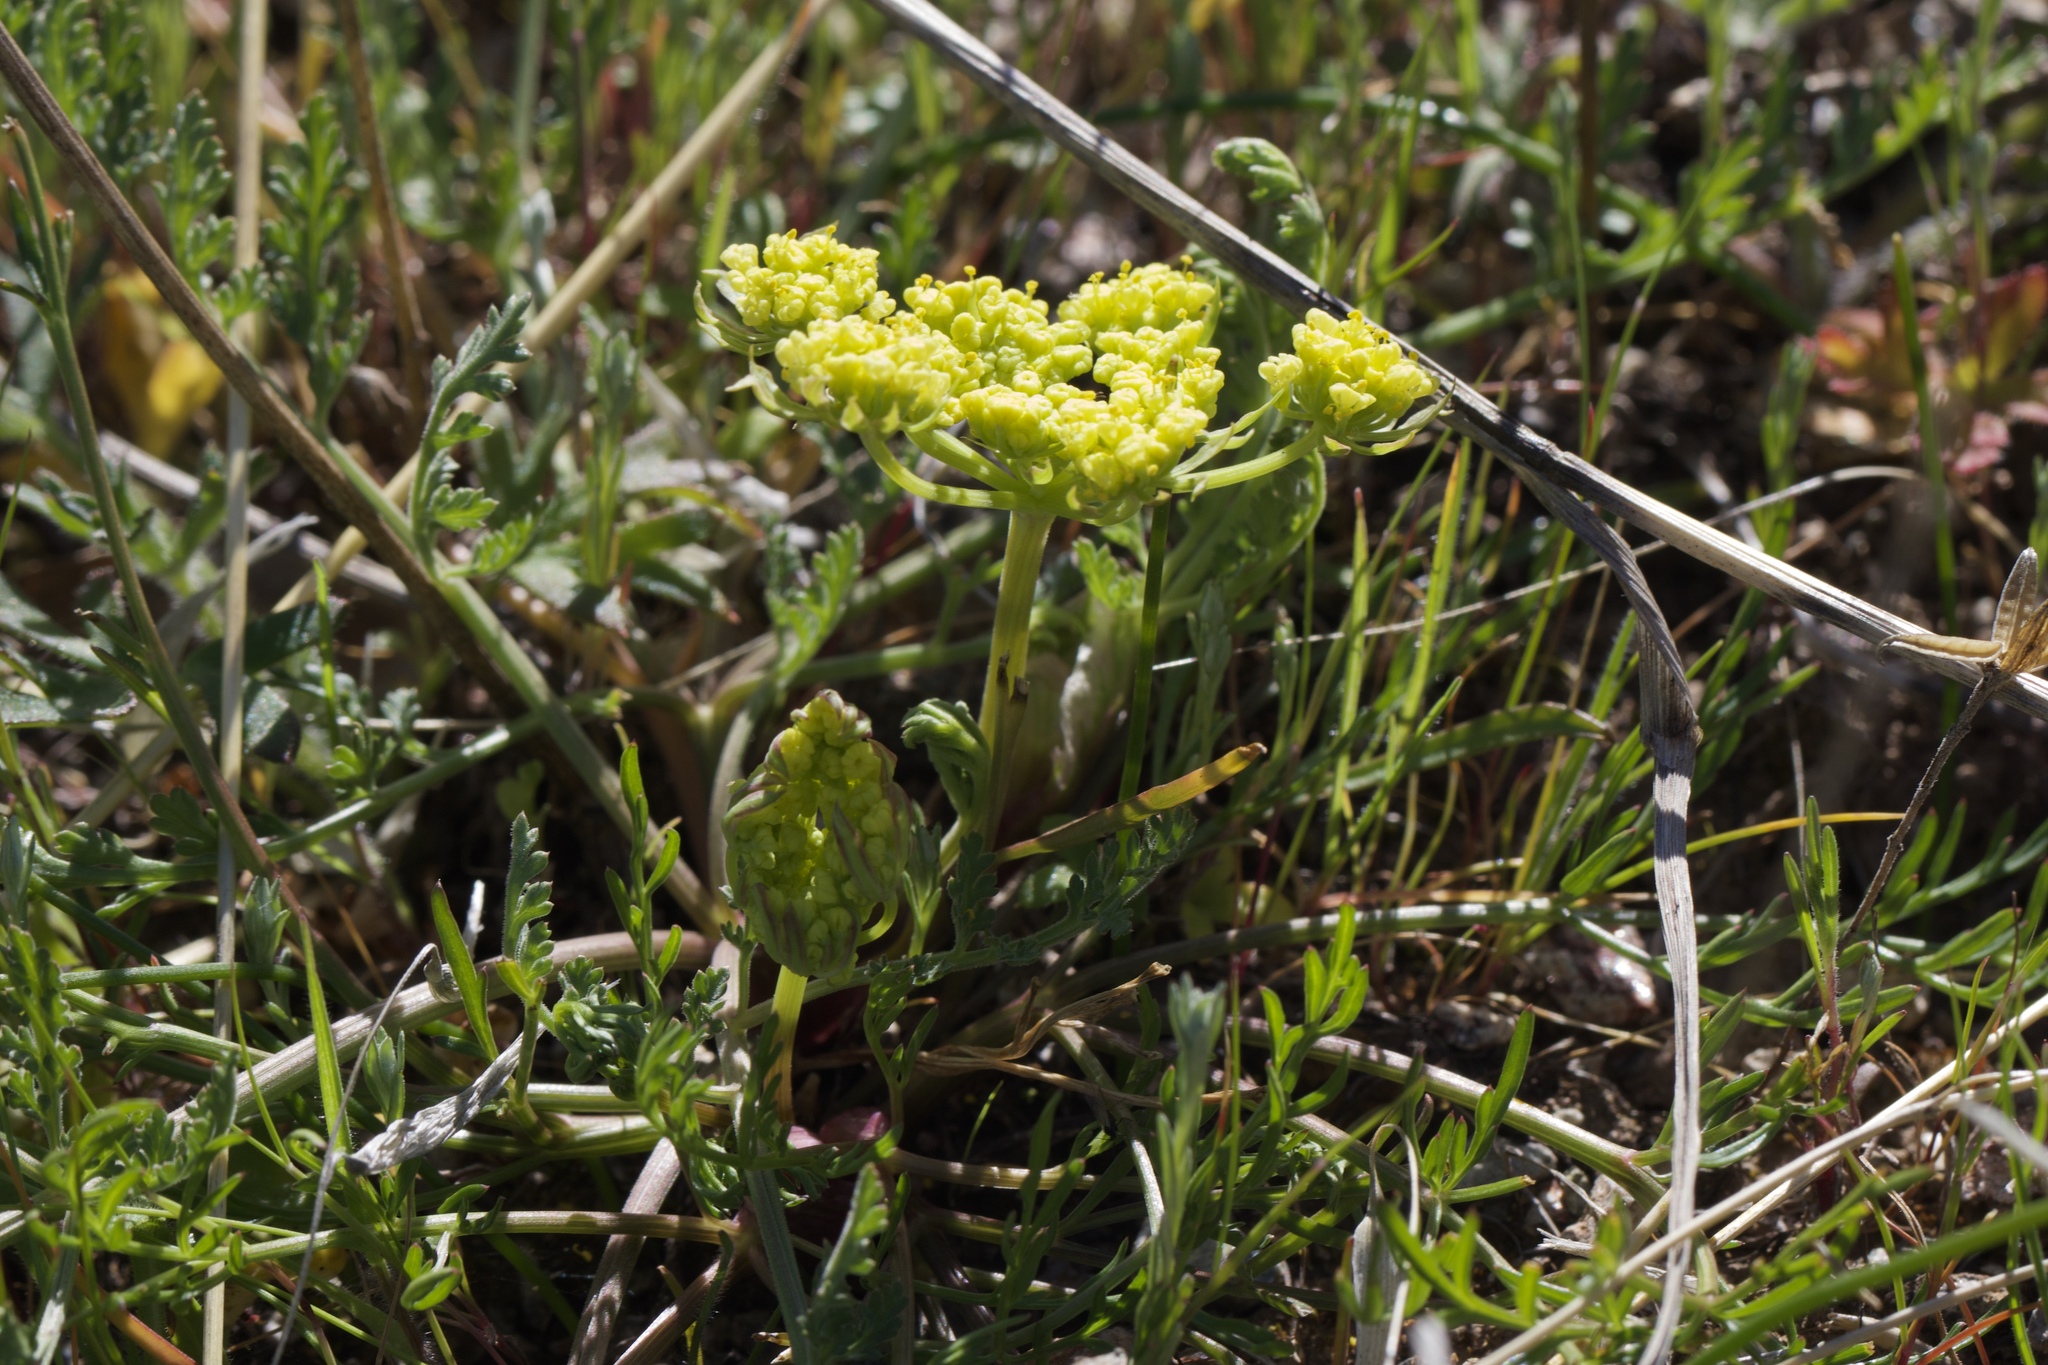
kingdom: Plantae
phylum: Tracheophyta
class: Magnoliopsida
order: Apiales
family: Apiaceae
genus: Lomatium
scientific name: Lomatium utriculatum
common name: Fine-leaf desert-parsley
